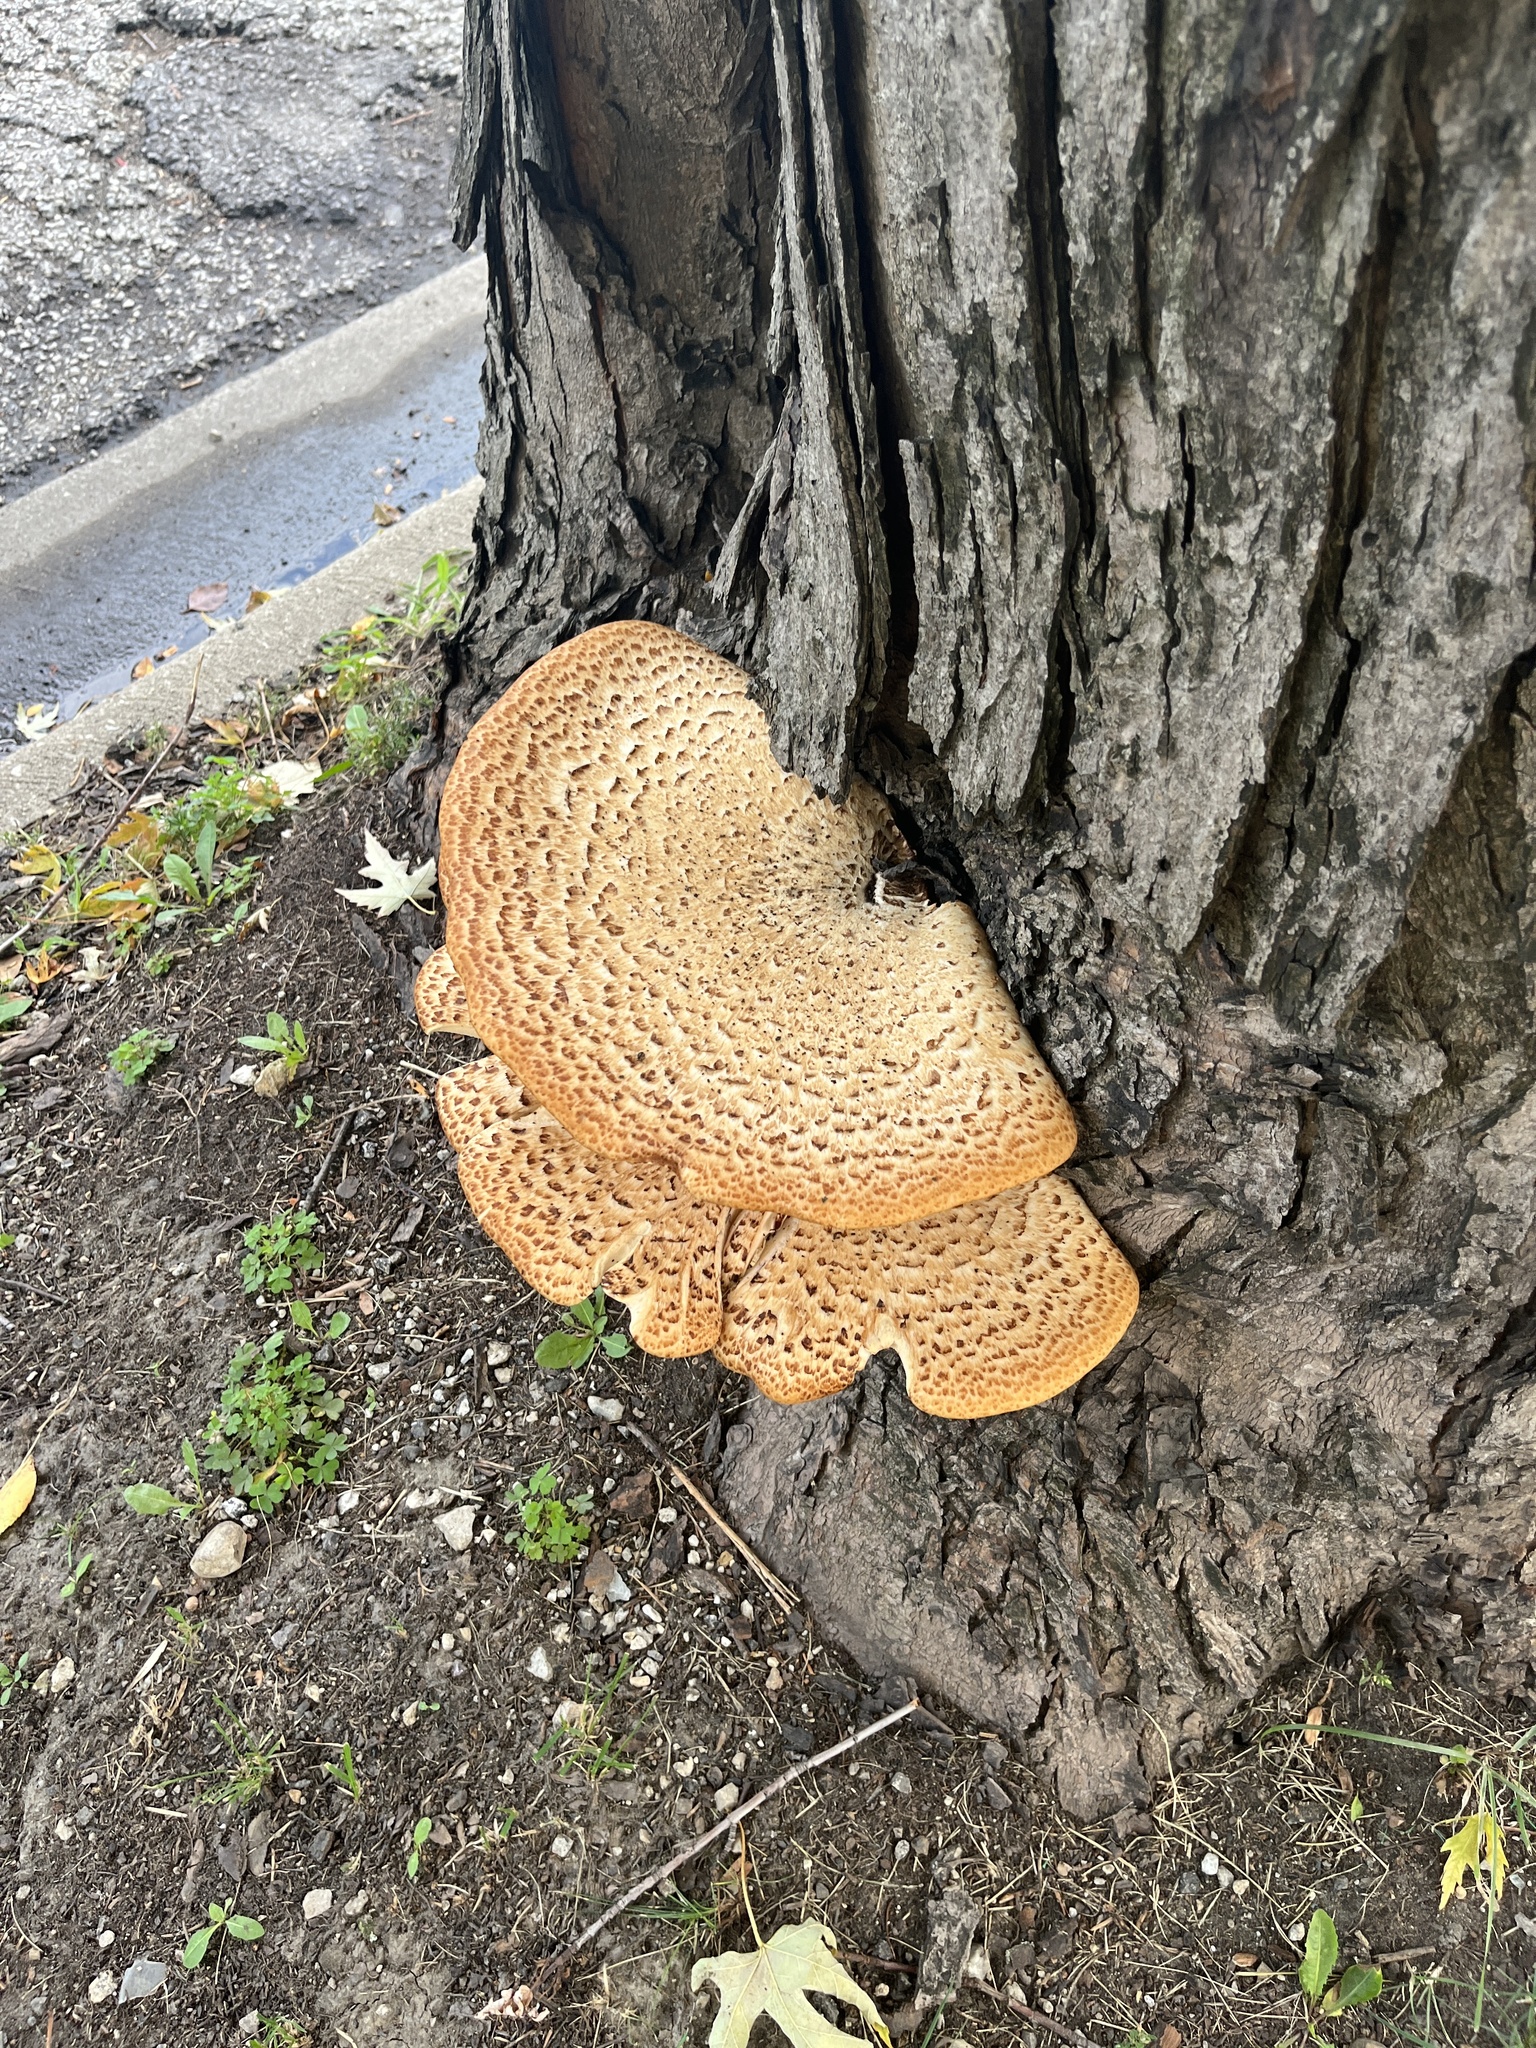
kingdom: Fungi
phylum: Basidiomycota
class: Agaricomycetes
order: Polyporales
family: Polyporaceae
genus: Cerioporus
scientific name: Cerioporus squamosus
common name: Dryad's saddle
